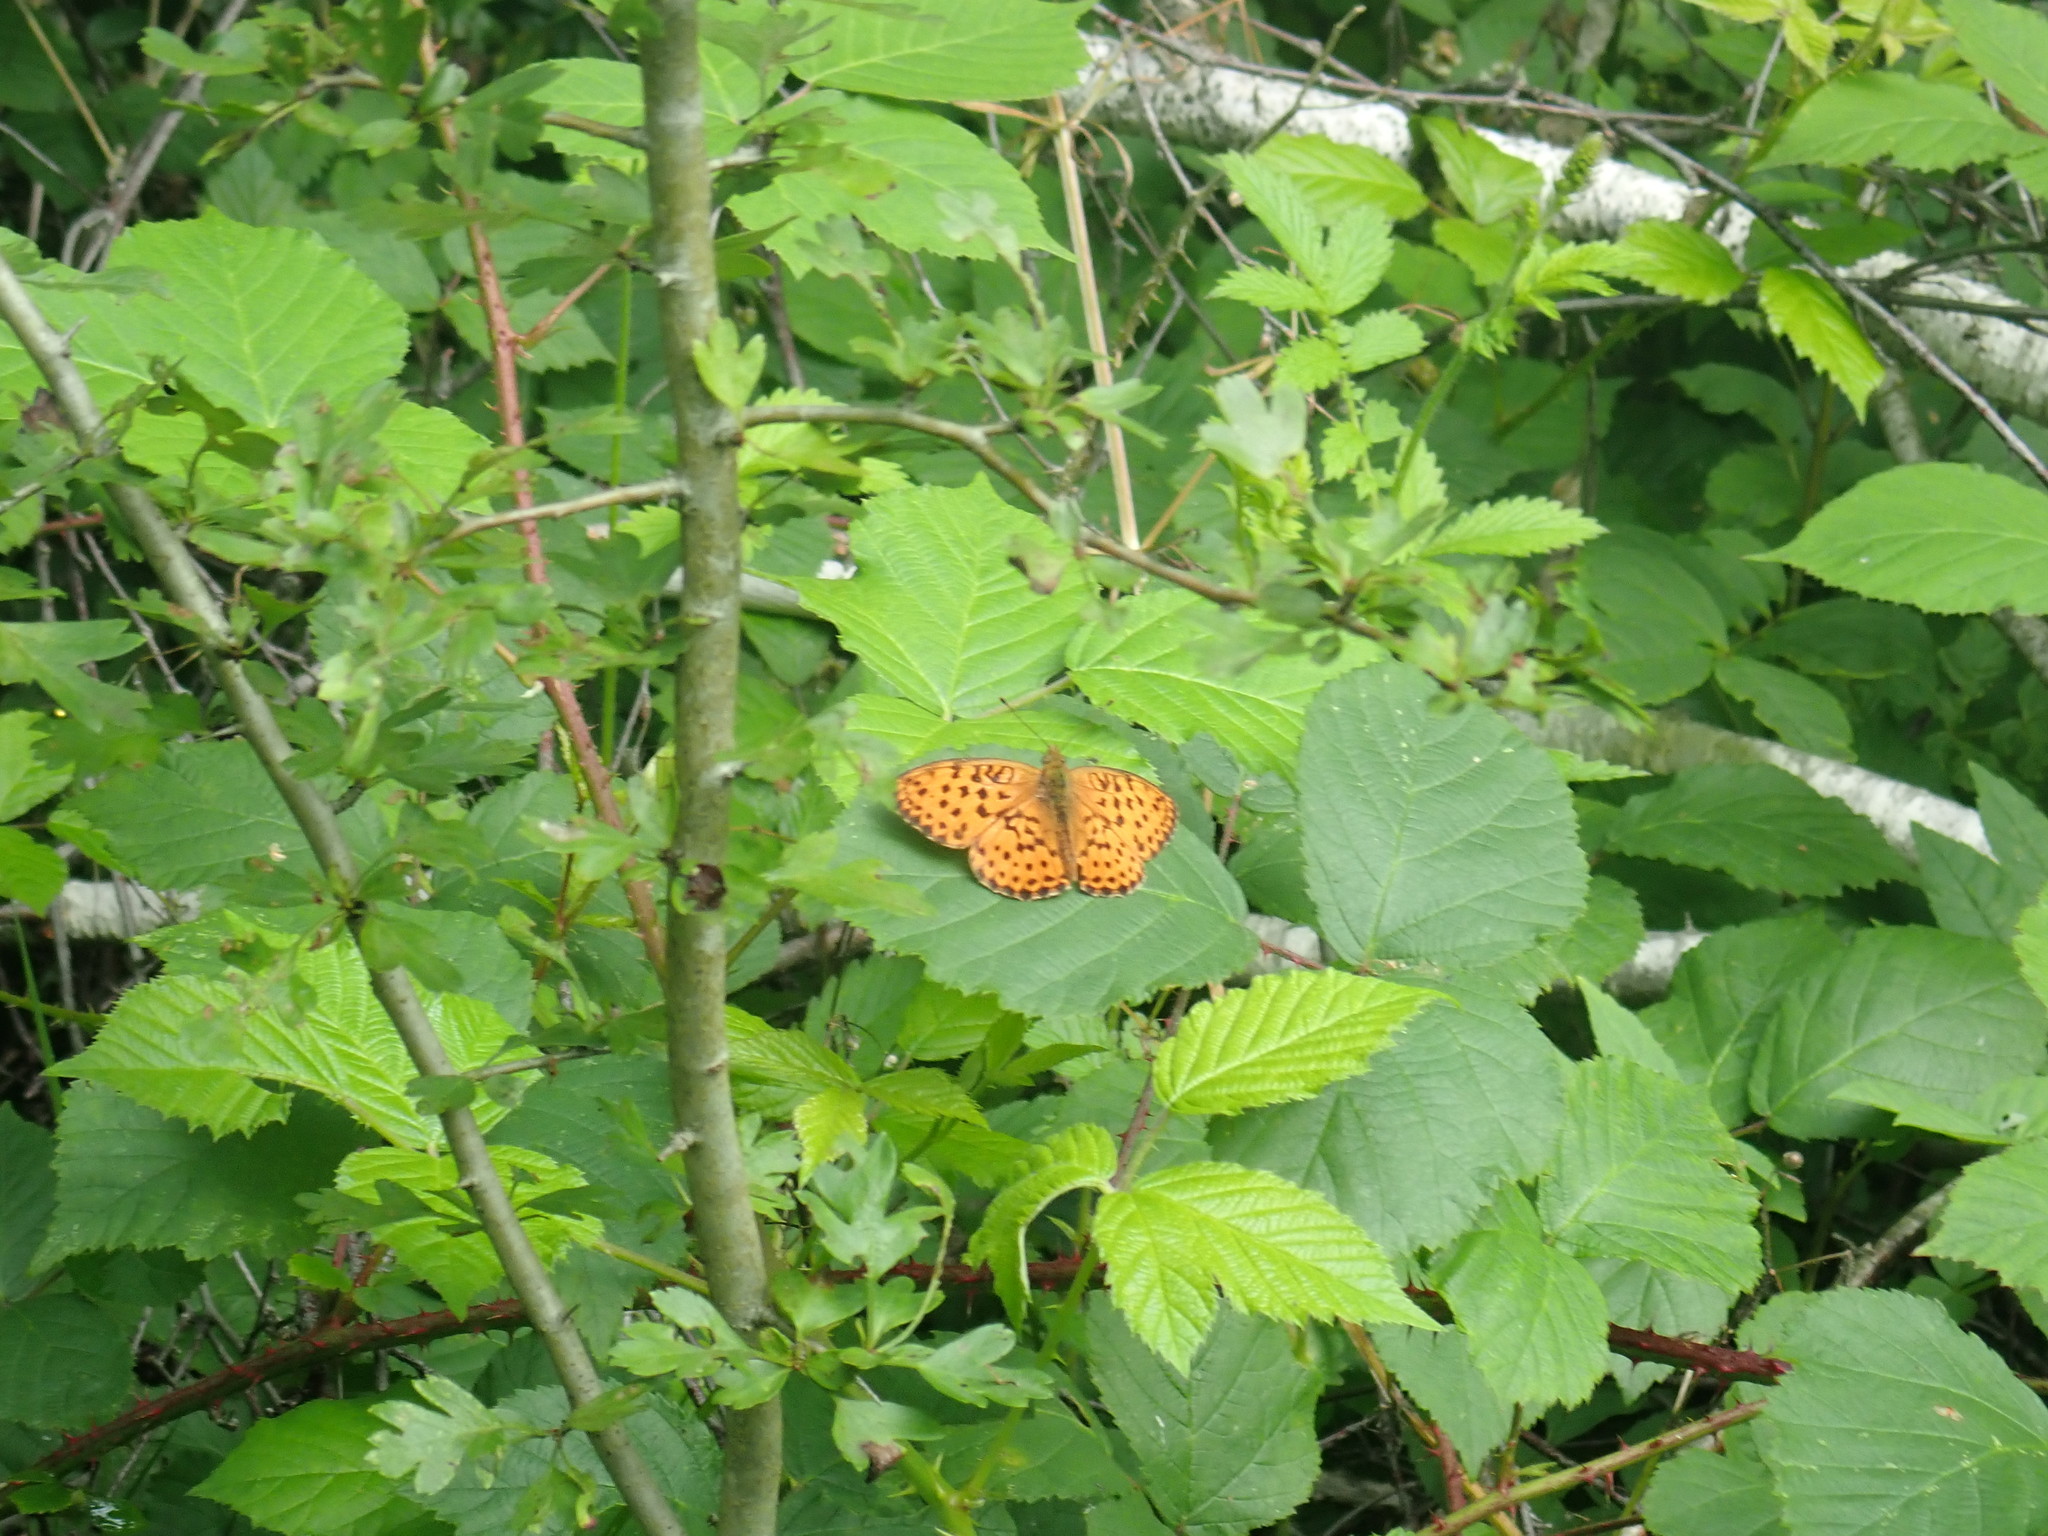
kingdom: Animalia
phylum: Arthropoda
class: Insecta
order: Lepidoptera
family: Nymphalidae
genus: Brenthis
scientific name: Brenthis daphne
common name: Marbled fritillary
